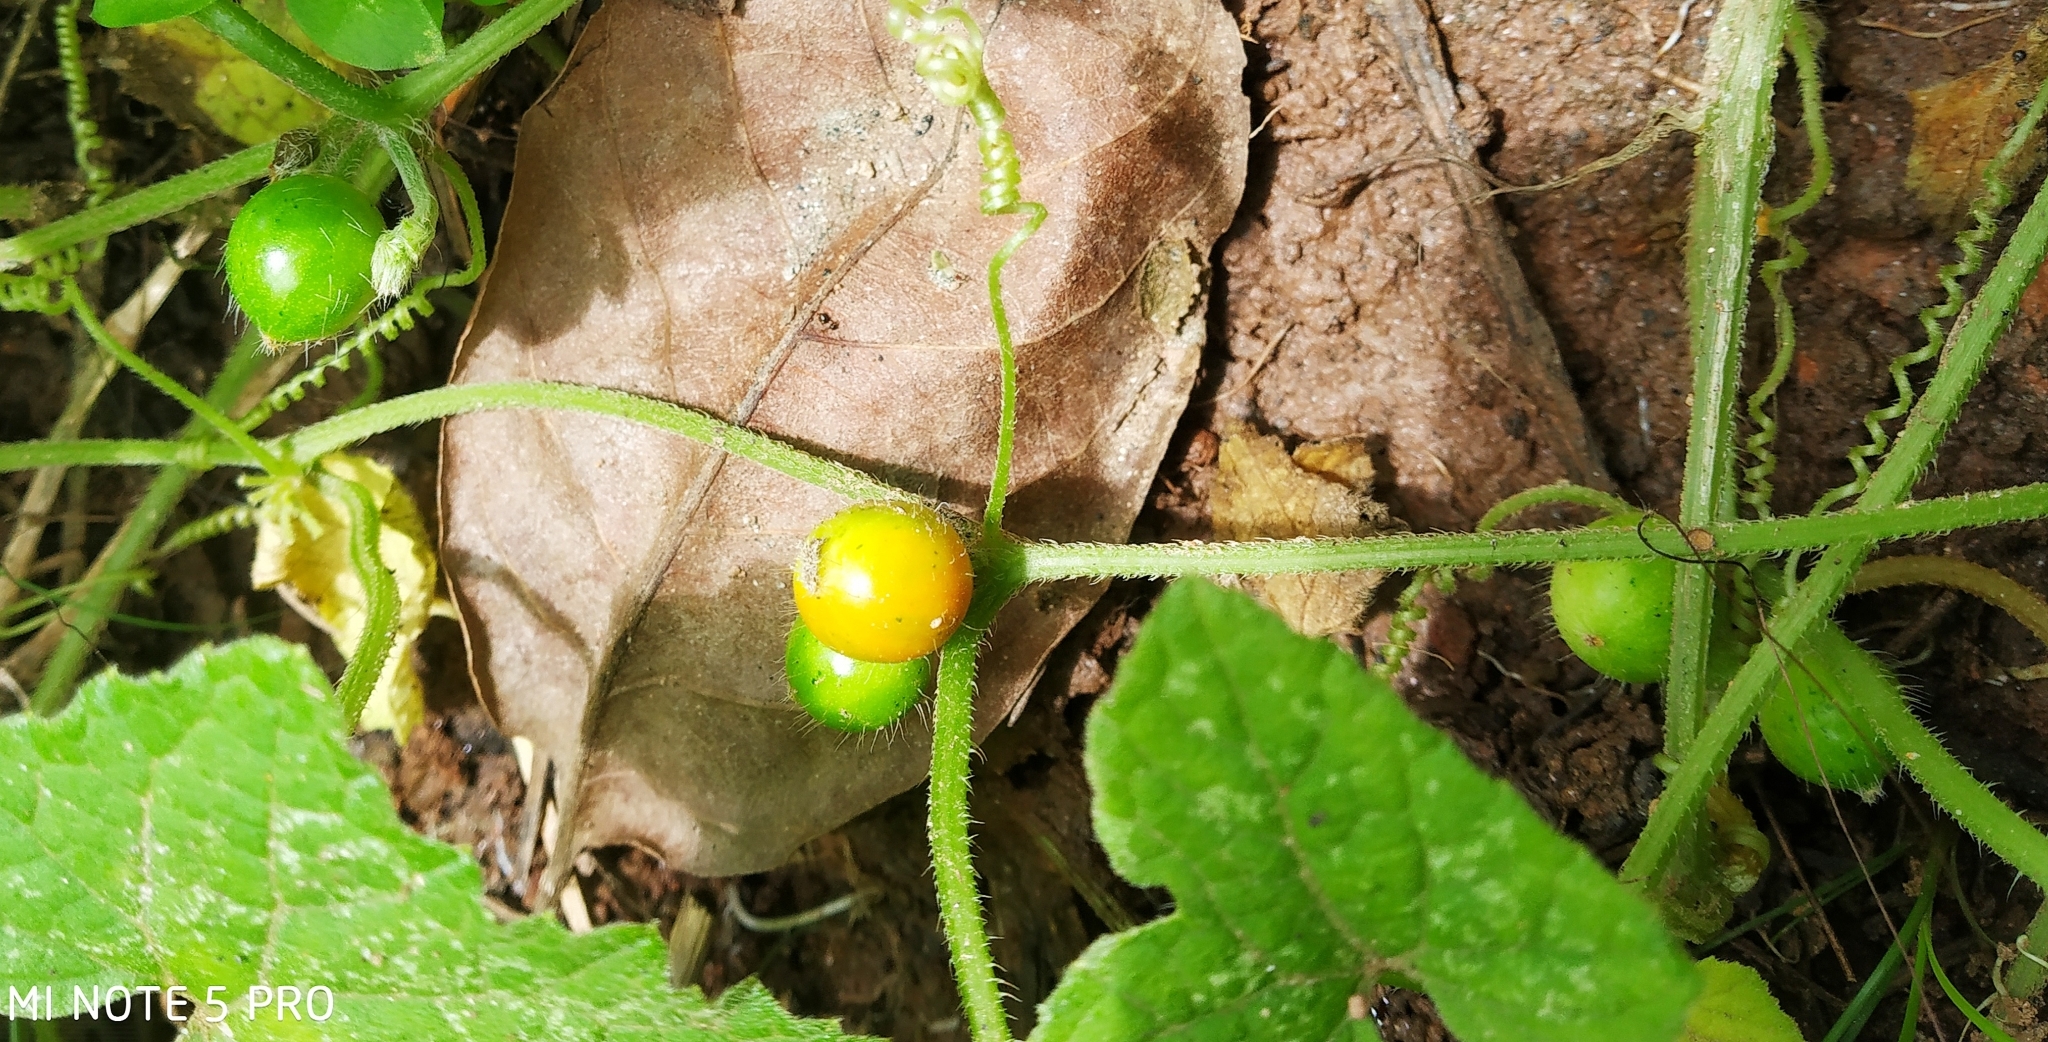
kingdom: Plantae
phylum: Tracheophyta
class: Magnoliopsida
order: Cucurbitales
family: Cucurbitaceae
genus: Cucumis
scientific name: Cucumis maderaspatanus
